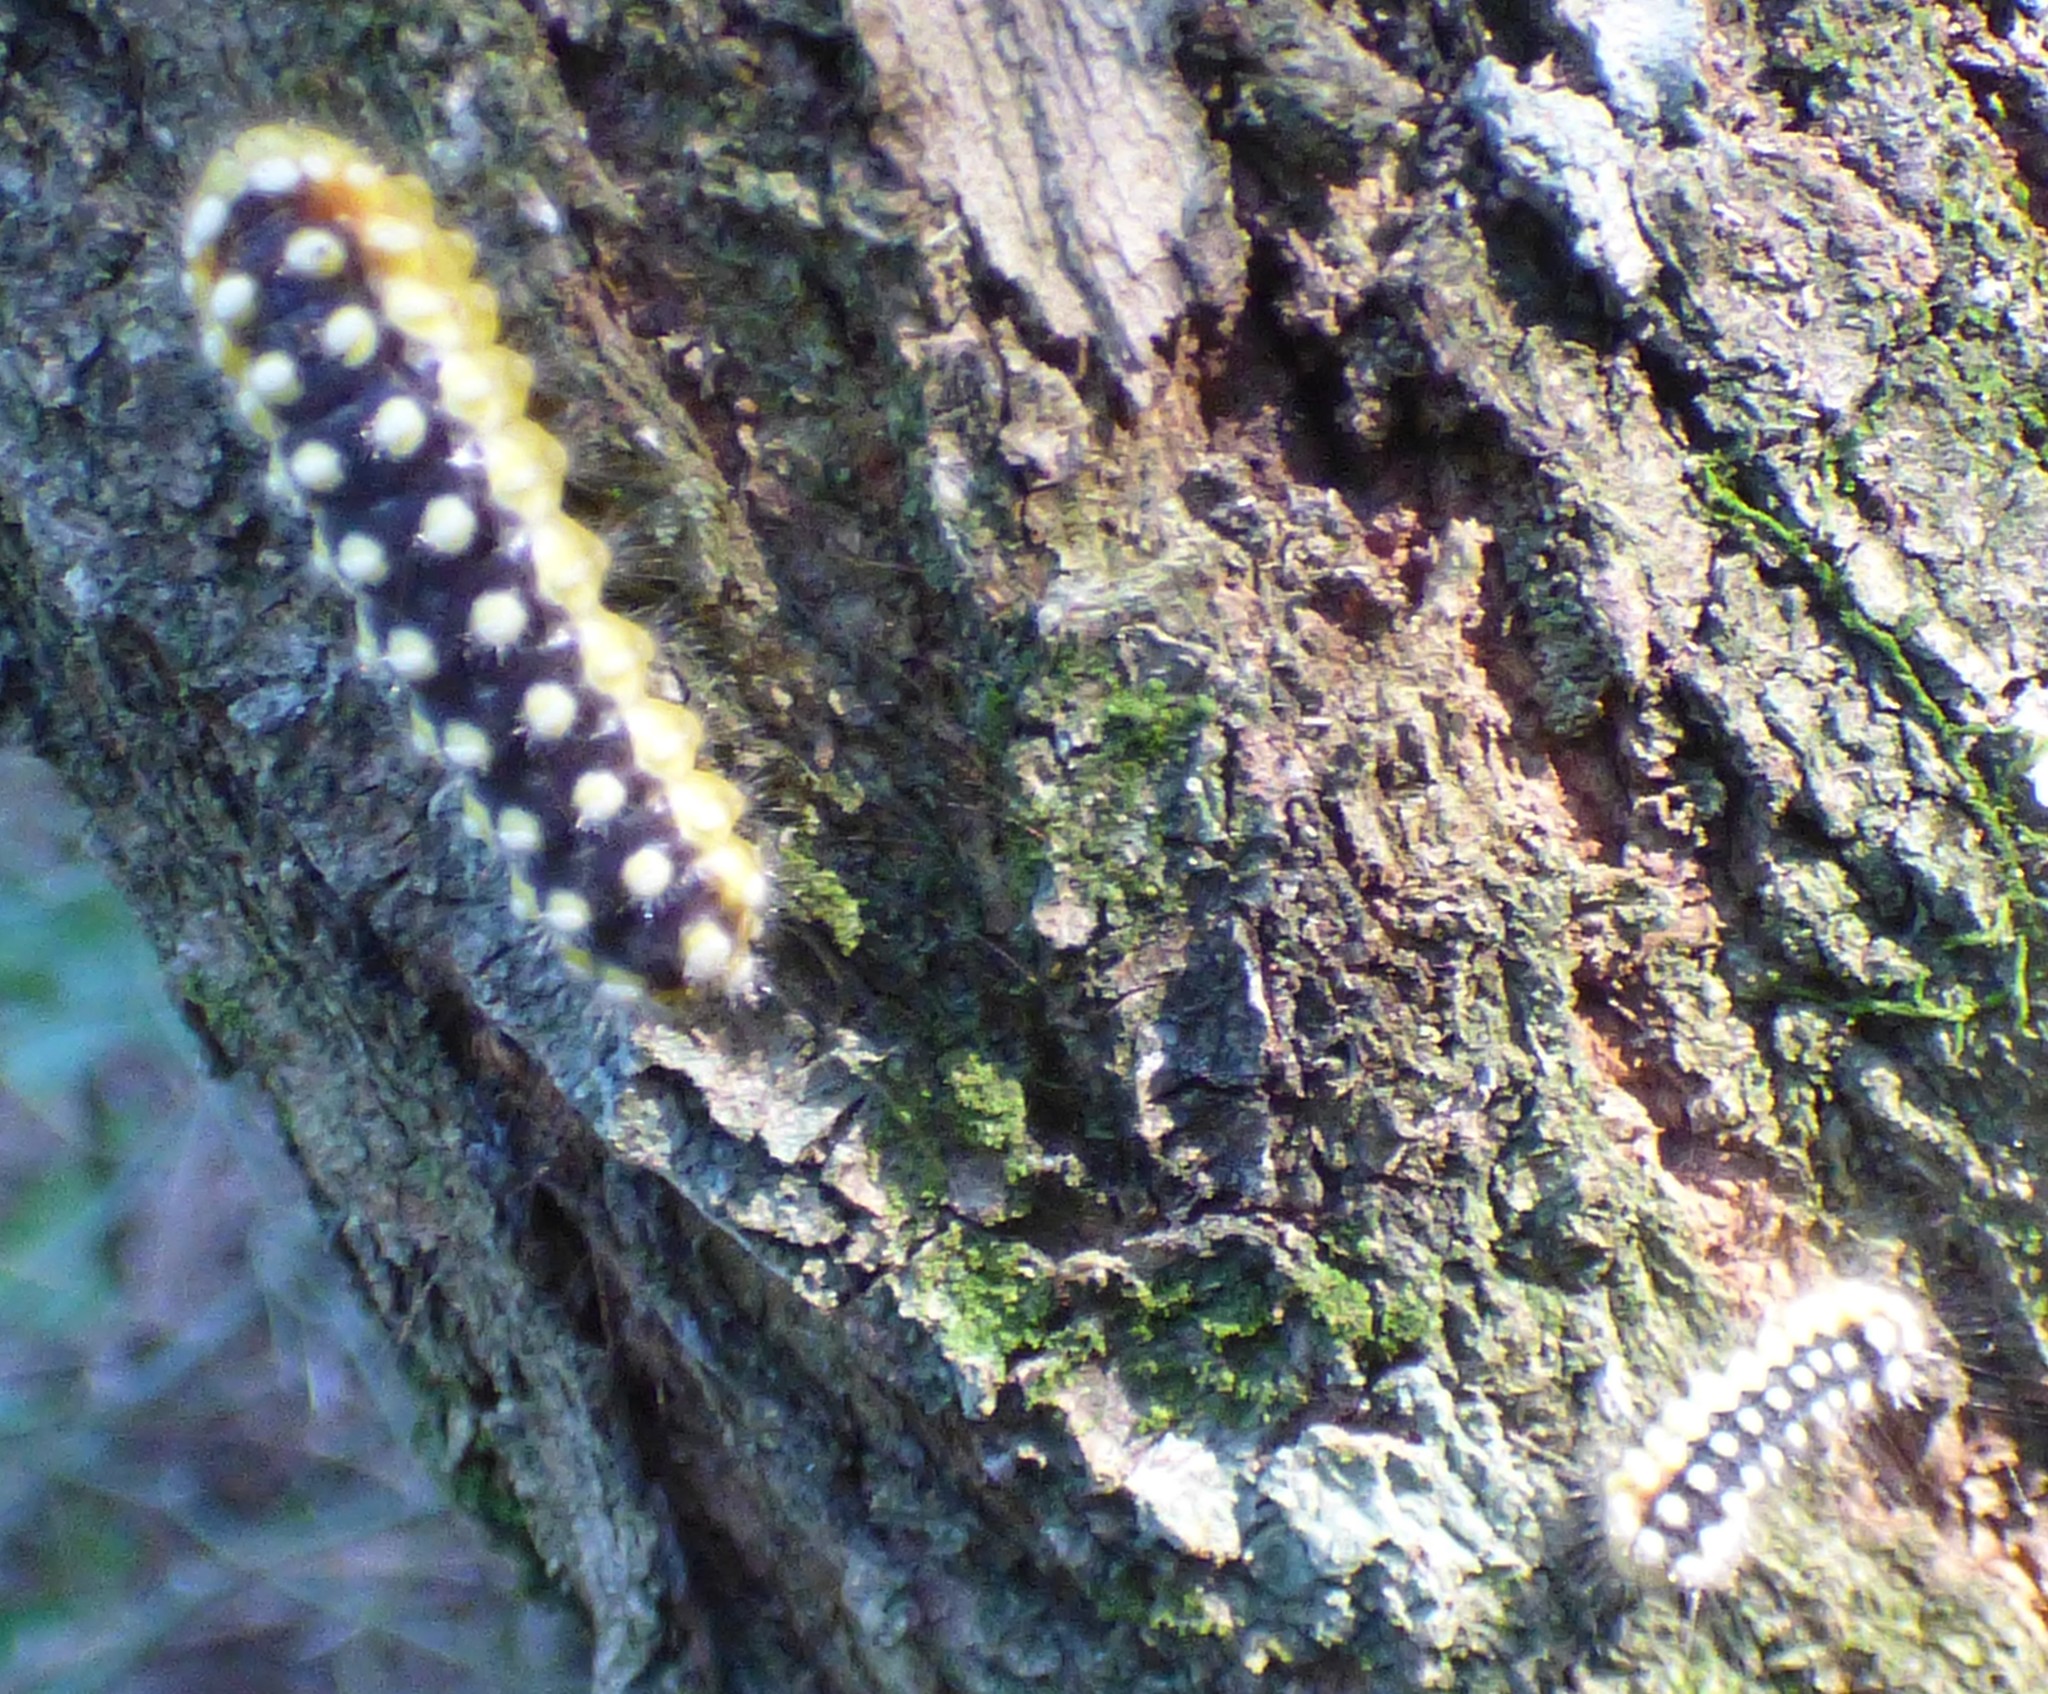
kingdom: Animalia
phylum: Arthropoda
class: Insecta
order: Lepidoptera
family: Megalopygidae
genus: Norape
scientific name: Norape cretata
